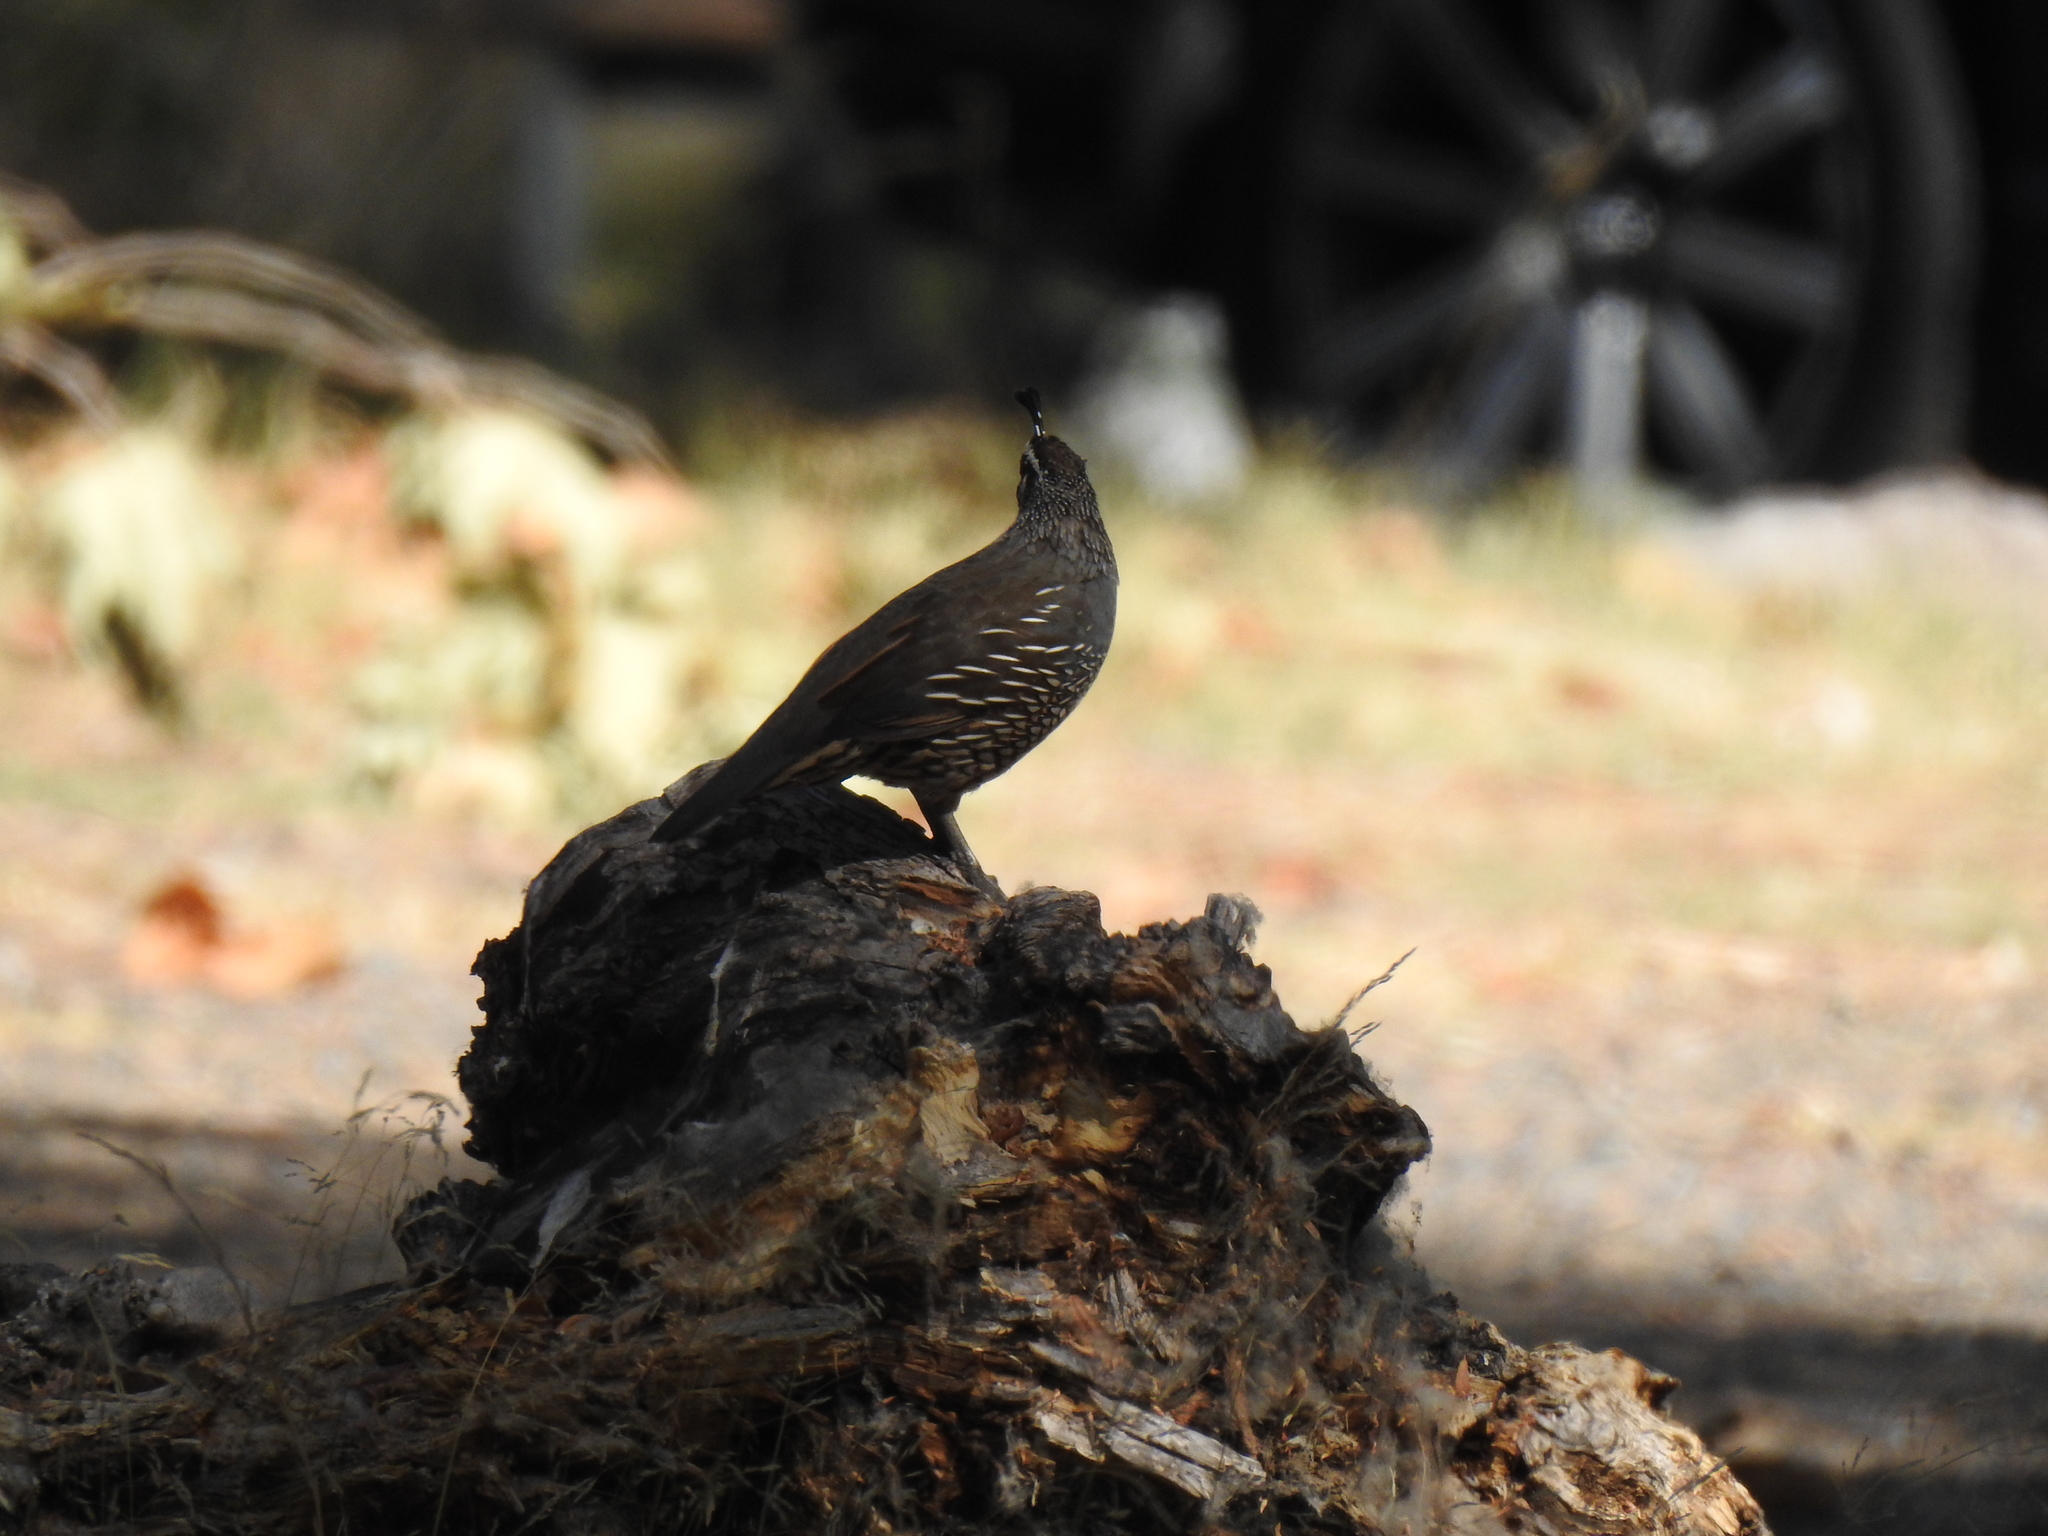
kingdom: Animalia
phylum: Chordata
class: Aves
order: Galliformes
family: Odontophoridae
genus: Callipepla
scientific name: Callipepla californica
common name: California quail
